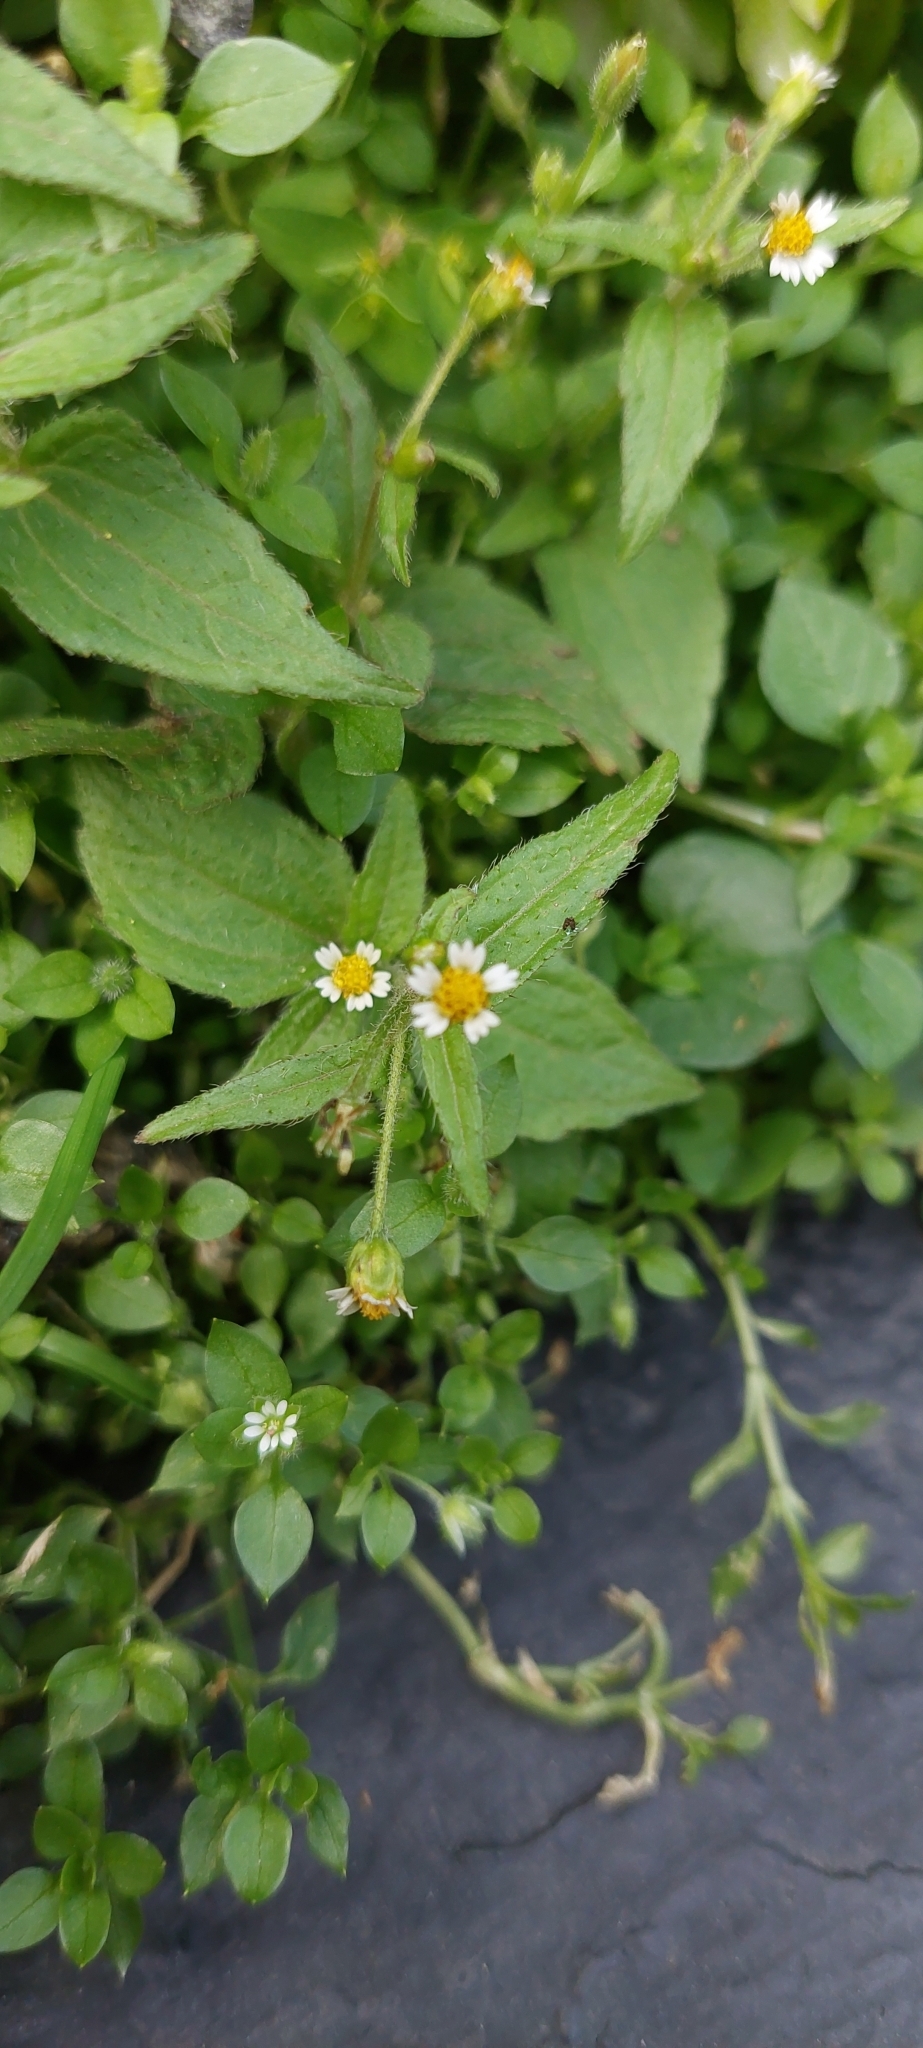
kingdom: Plantae
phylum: Tracheophyta
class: Magnoliopsida
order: Asterales
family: Asteraceae
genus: Galinsoga
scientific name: Galinsoga quadriradiata
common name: Shaggy soldier
